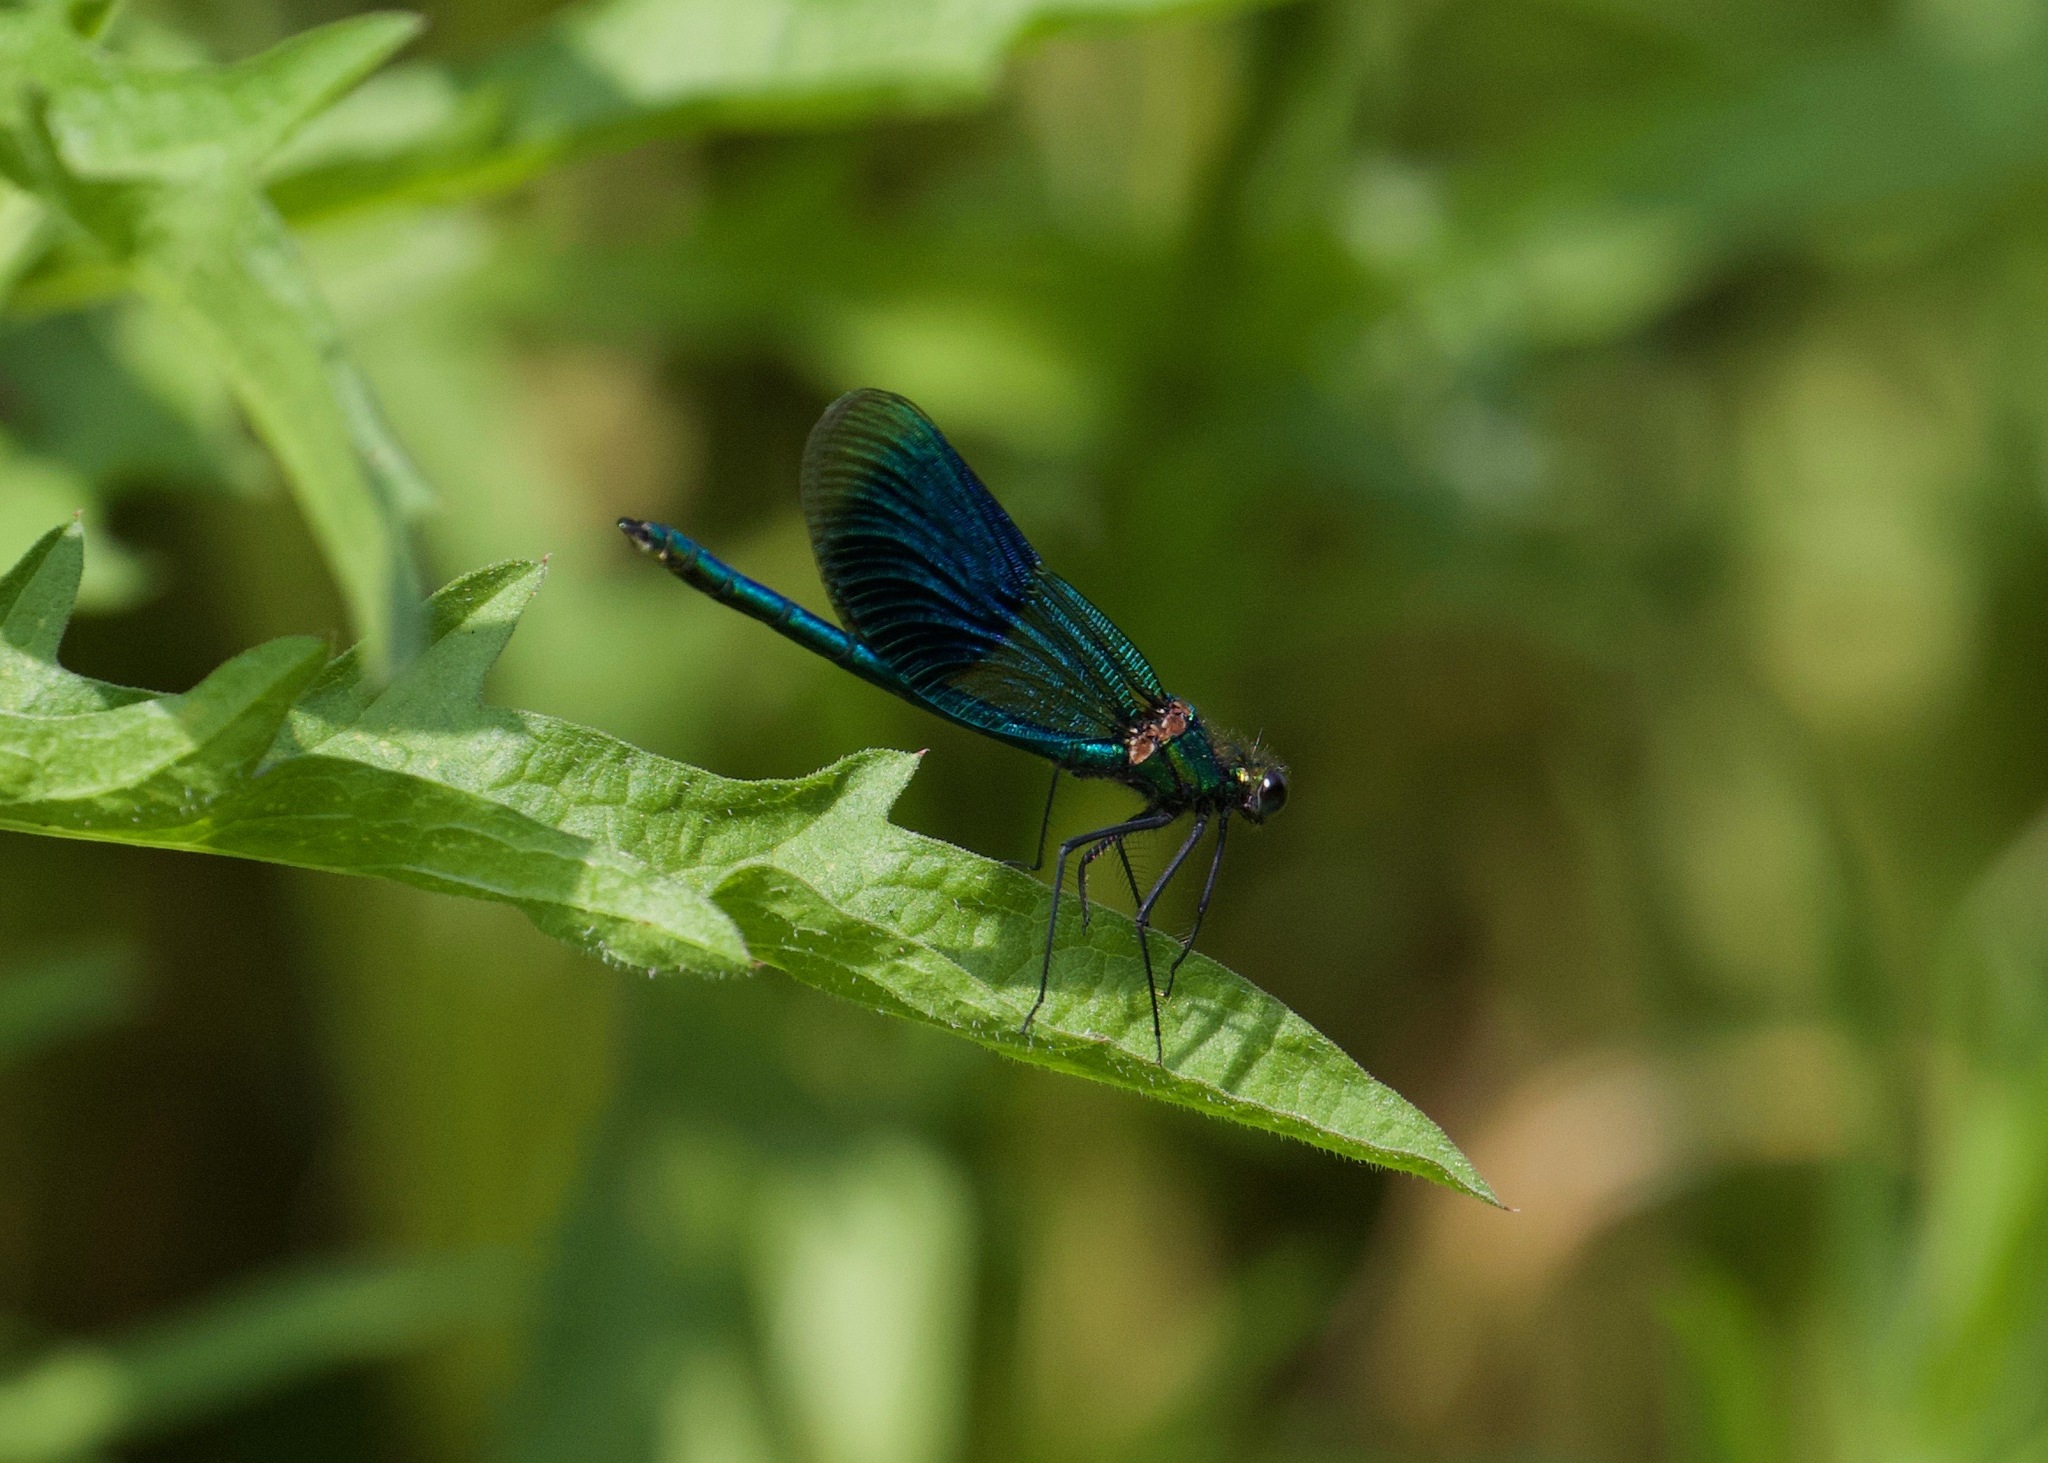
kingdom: Animalia
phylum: Arthropoda
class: Insecta
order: Odonata
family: Calopterygidae
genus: Calopteryx
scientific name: Calopteryx splendens
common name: Banded demoiselle
